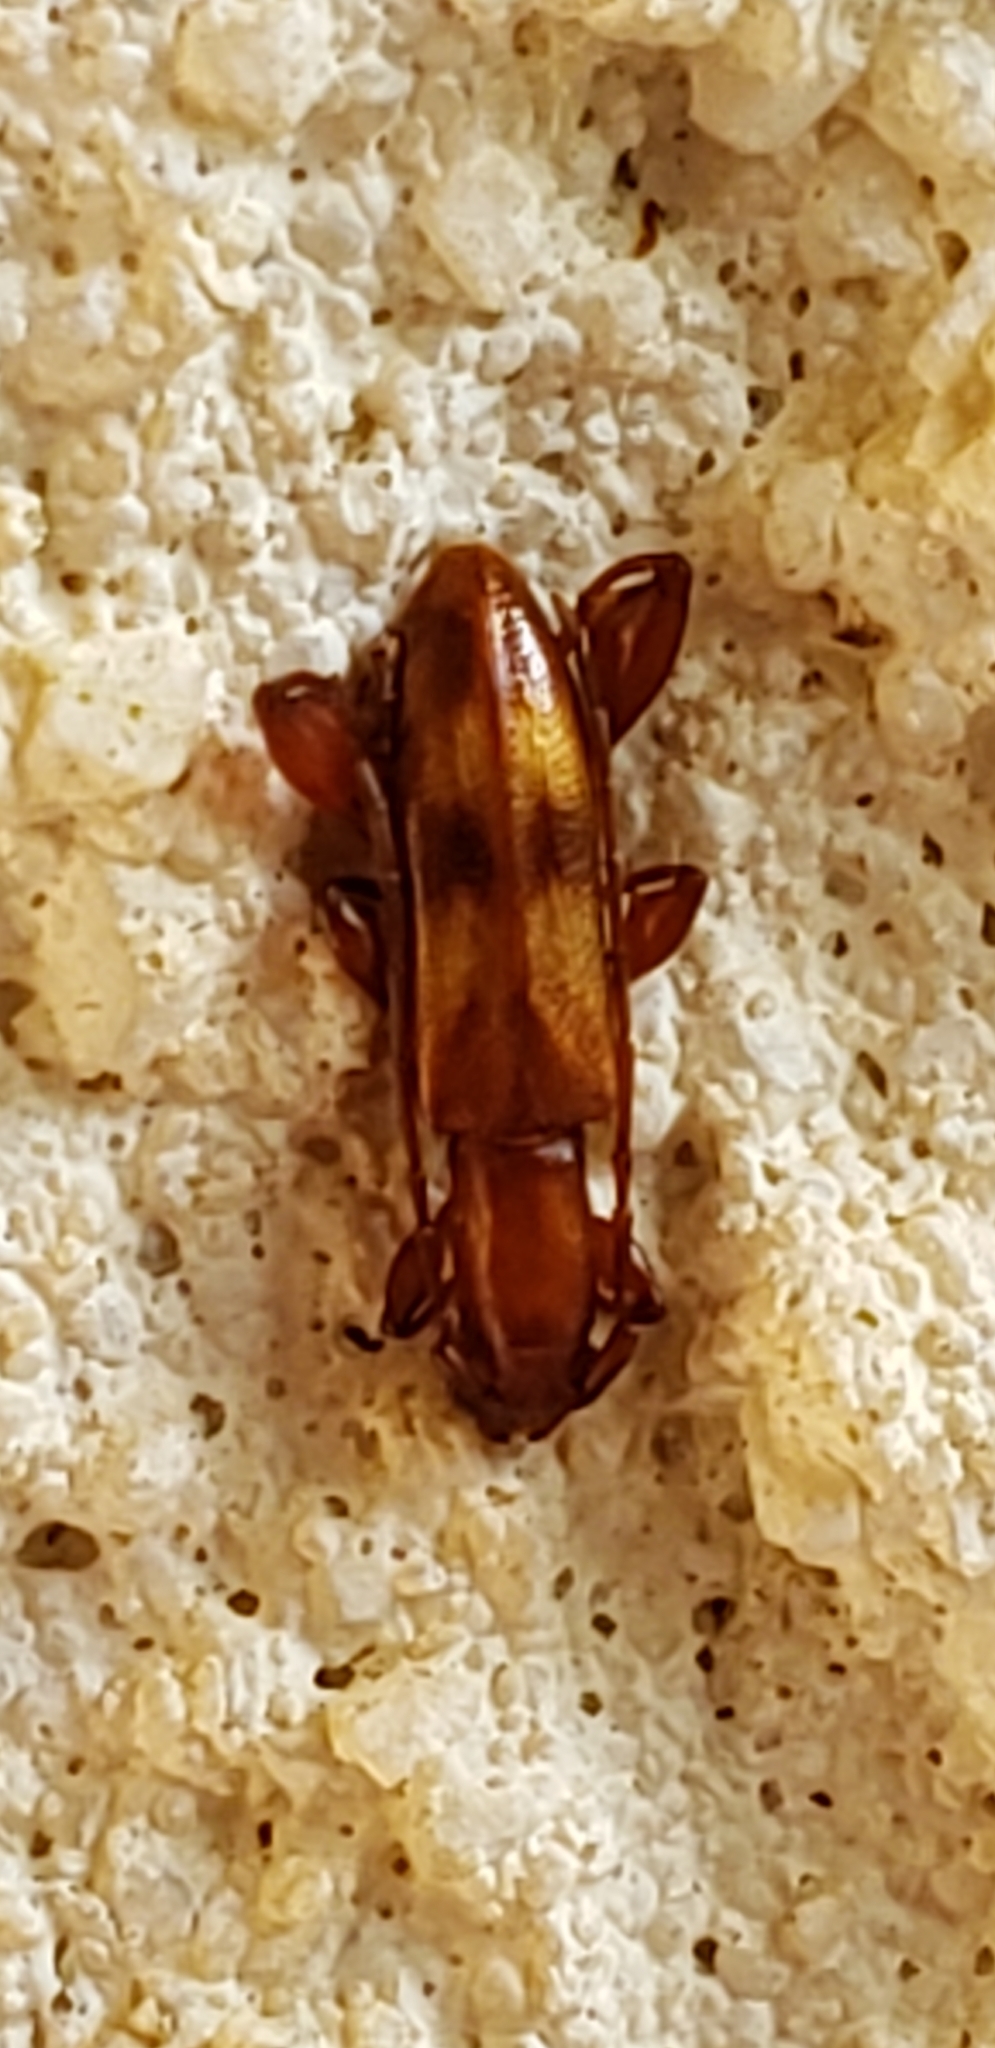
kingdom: Animalia
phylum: Arthropoda
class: Insecta
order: Coleoptera
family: Cerambycidae
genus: Plectromerus
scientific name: Plectromerus fasciatus
